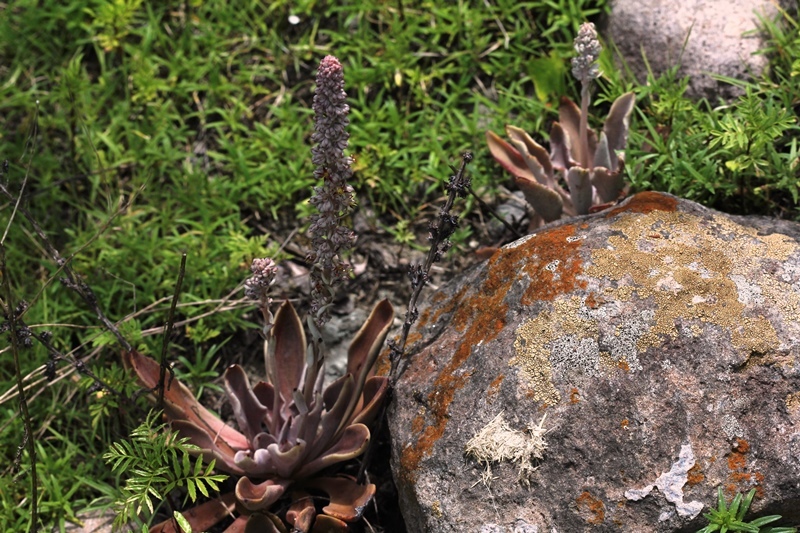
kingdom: Plantae
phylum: Tracheophyta
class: Magnoliopsida
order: Saxifragales
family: Crassulaceae
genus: Thompsonella
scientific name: Thompsonella minutiflora
